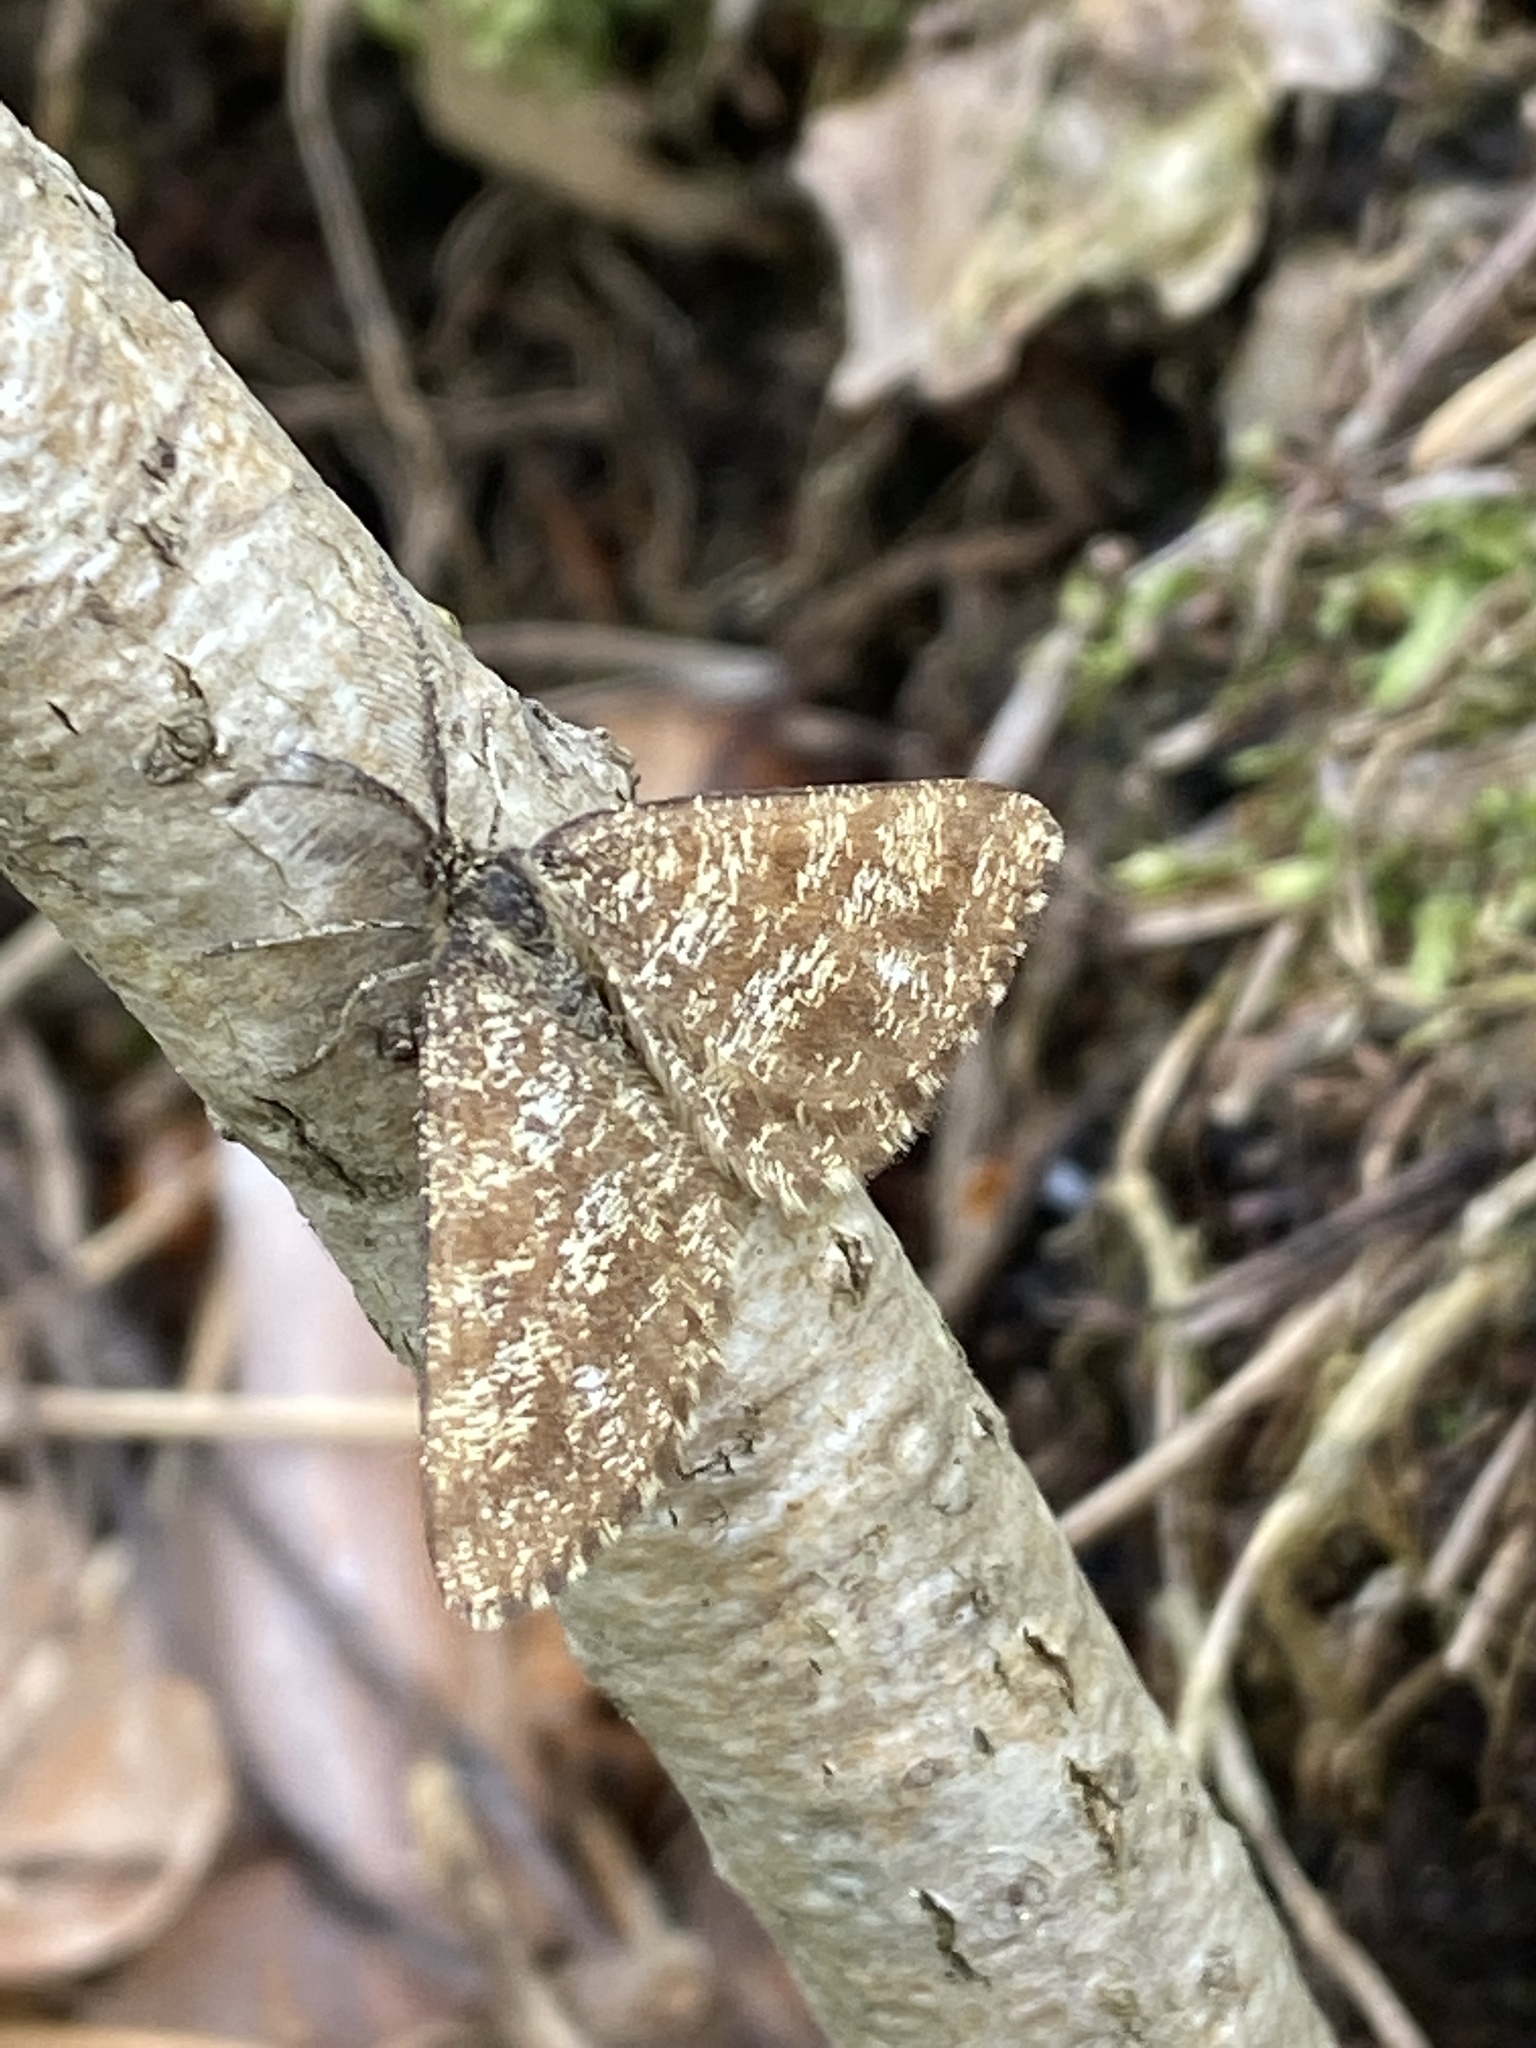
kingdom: Animalia
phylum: Arthropoda
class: Insecta
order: Lepidoptera
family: Geometridae
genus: Ematurga
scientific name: Ematurga atomaria
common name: Common heath
